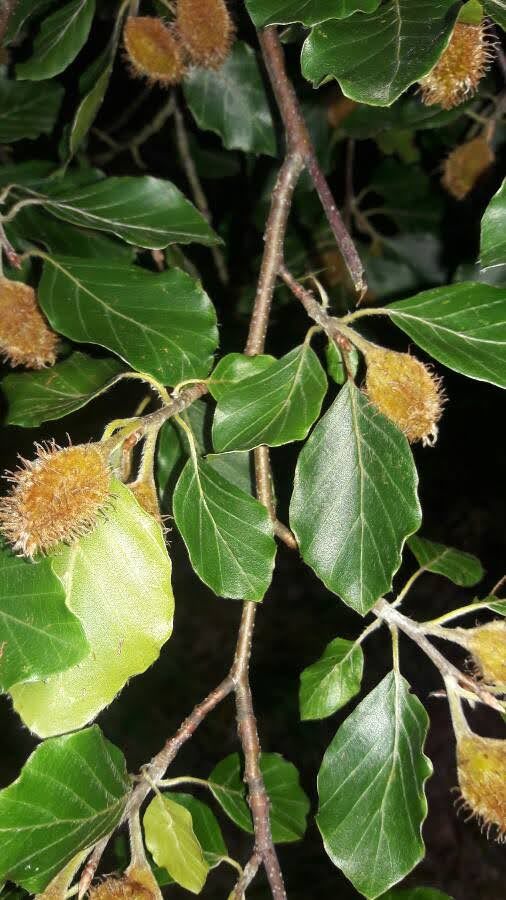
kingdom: Plantae
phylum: Tracheophyta
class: Magnoliopsida
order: Fagales
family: Fagaceae
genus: Fagus
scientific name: Fagus sylvatica
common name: Beech
